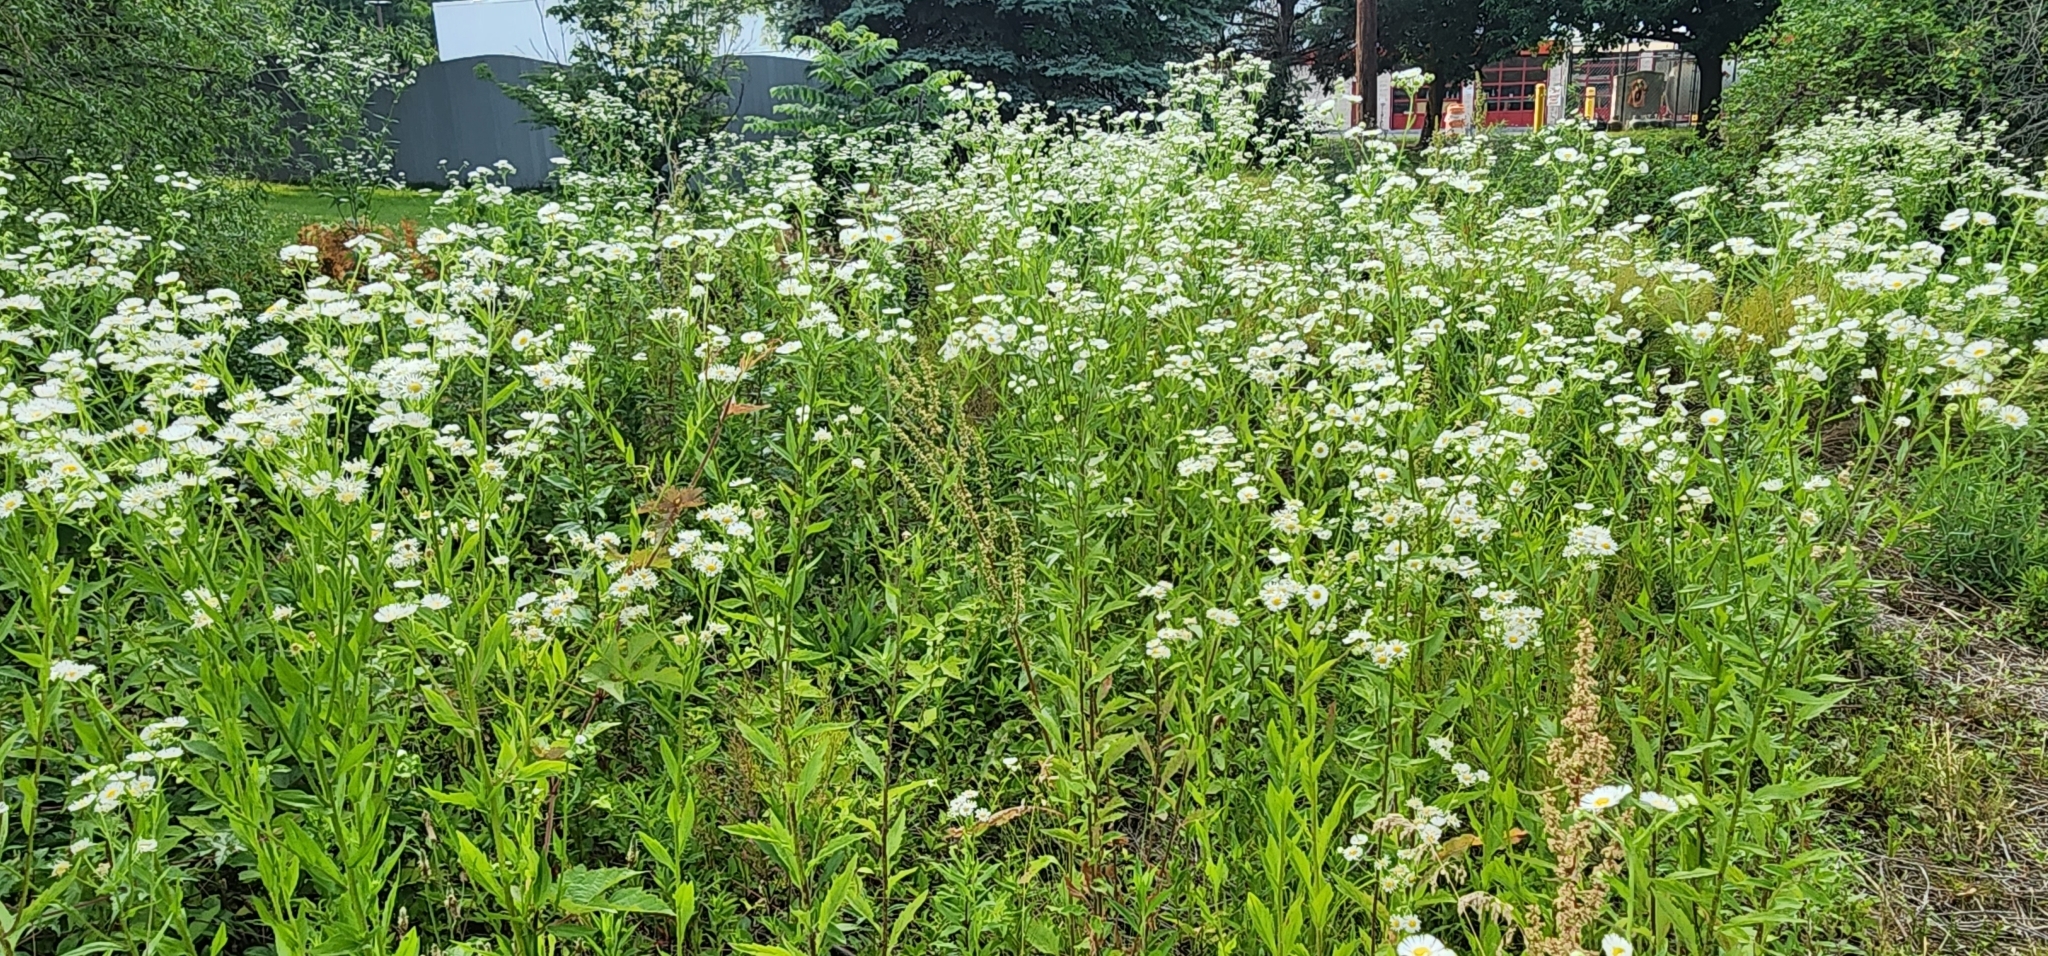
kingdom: Plantae
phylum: Tracheophyta
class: Magnoliopsida
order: Asterales
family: Asteraceae
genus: Erigeron
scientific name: Erigeron annuus
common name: Tall fleabane
